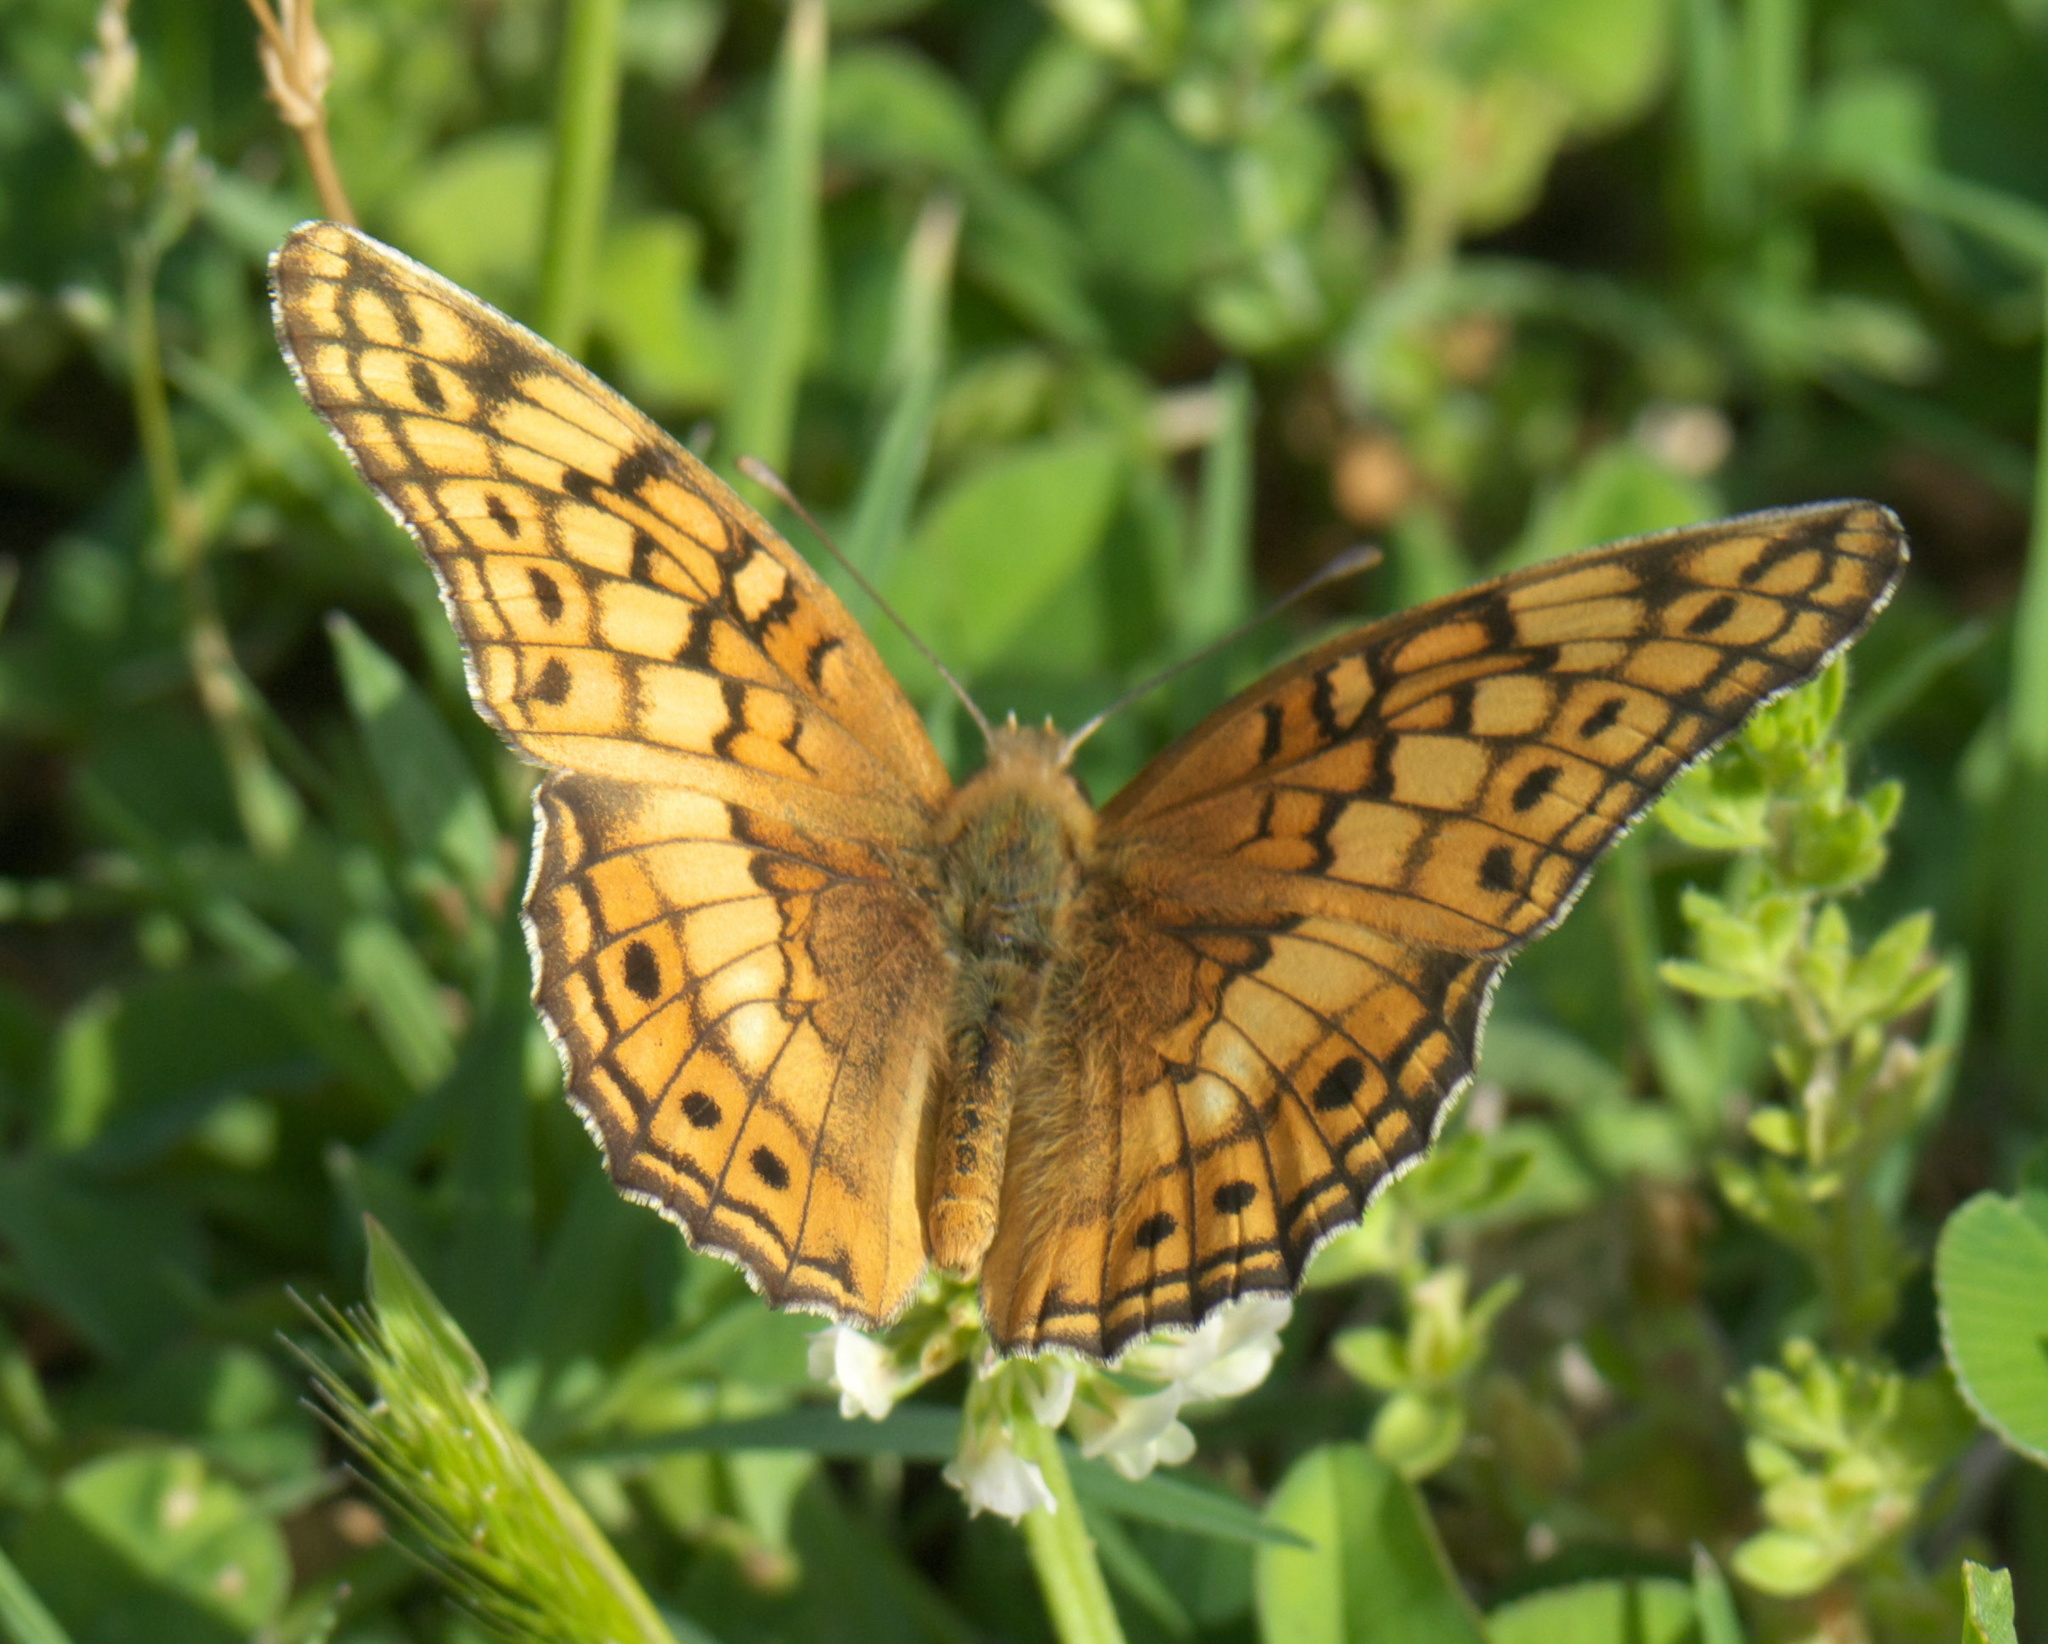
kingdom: Animalia
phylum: Arthropoda
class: Insecta
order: Lepidoptera
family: Nymphalidae
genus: Euptoieta
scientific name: Euptoieta claudia
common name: Variegated fritillary
